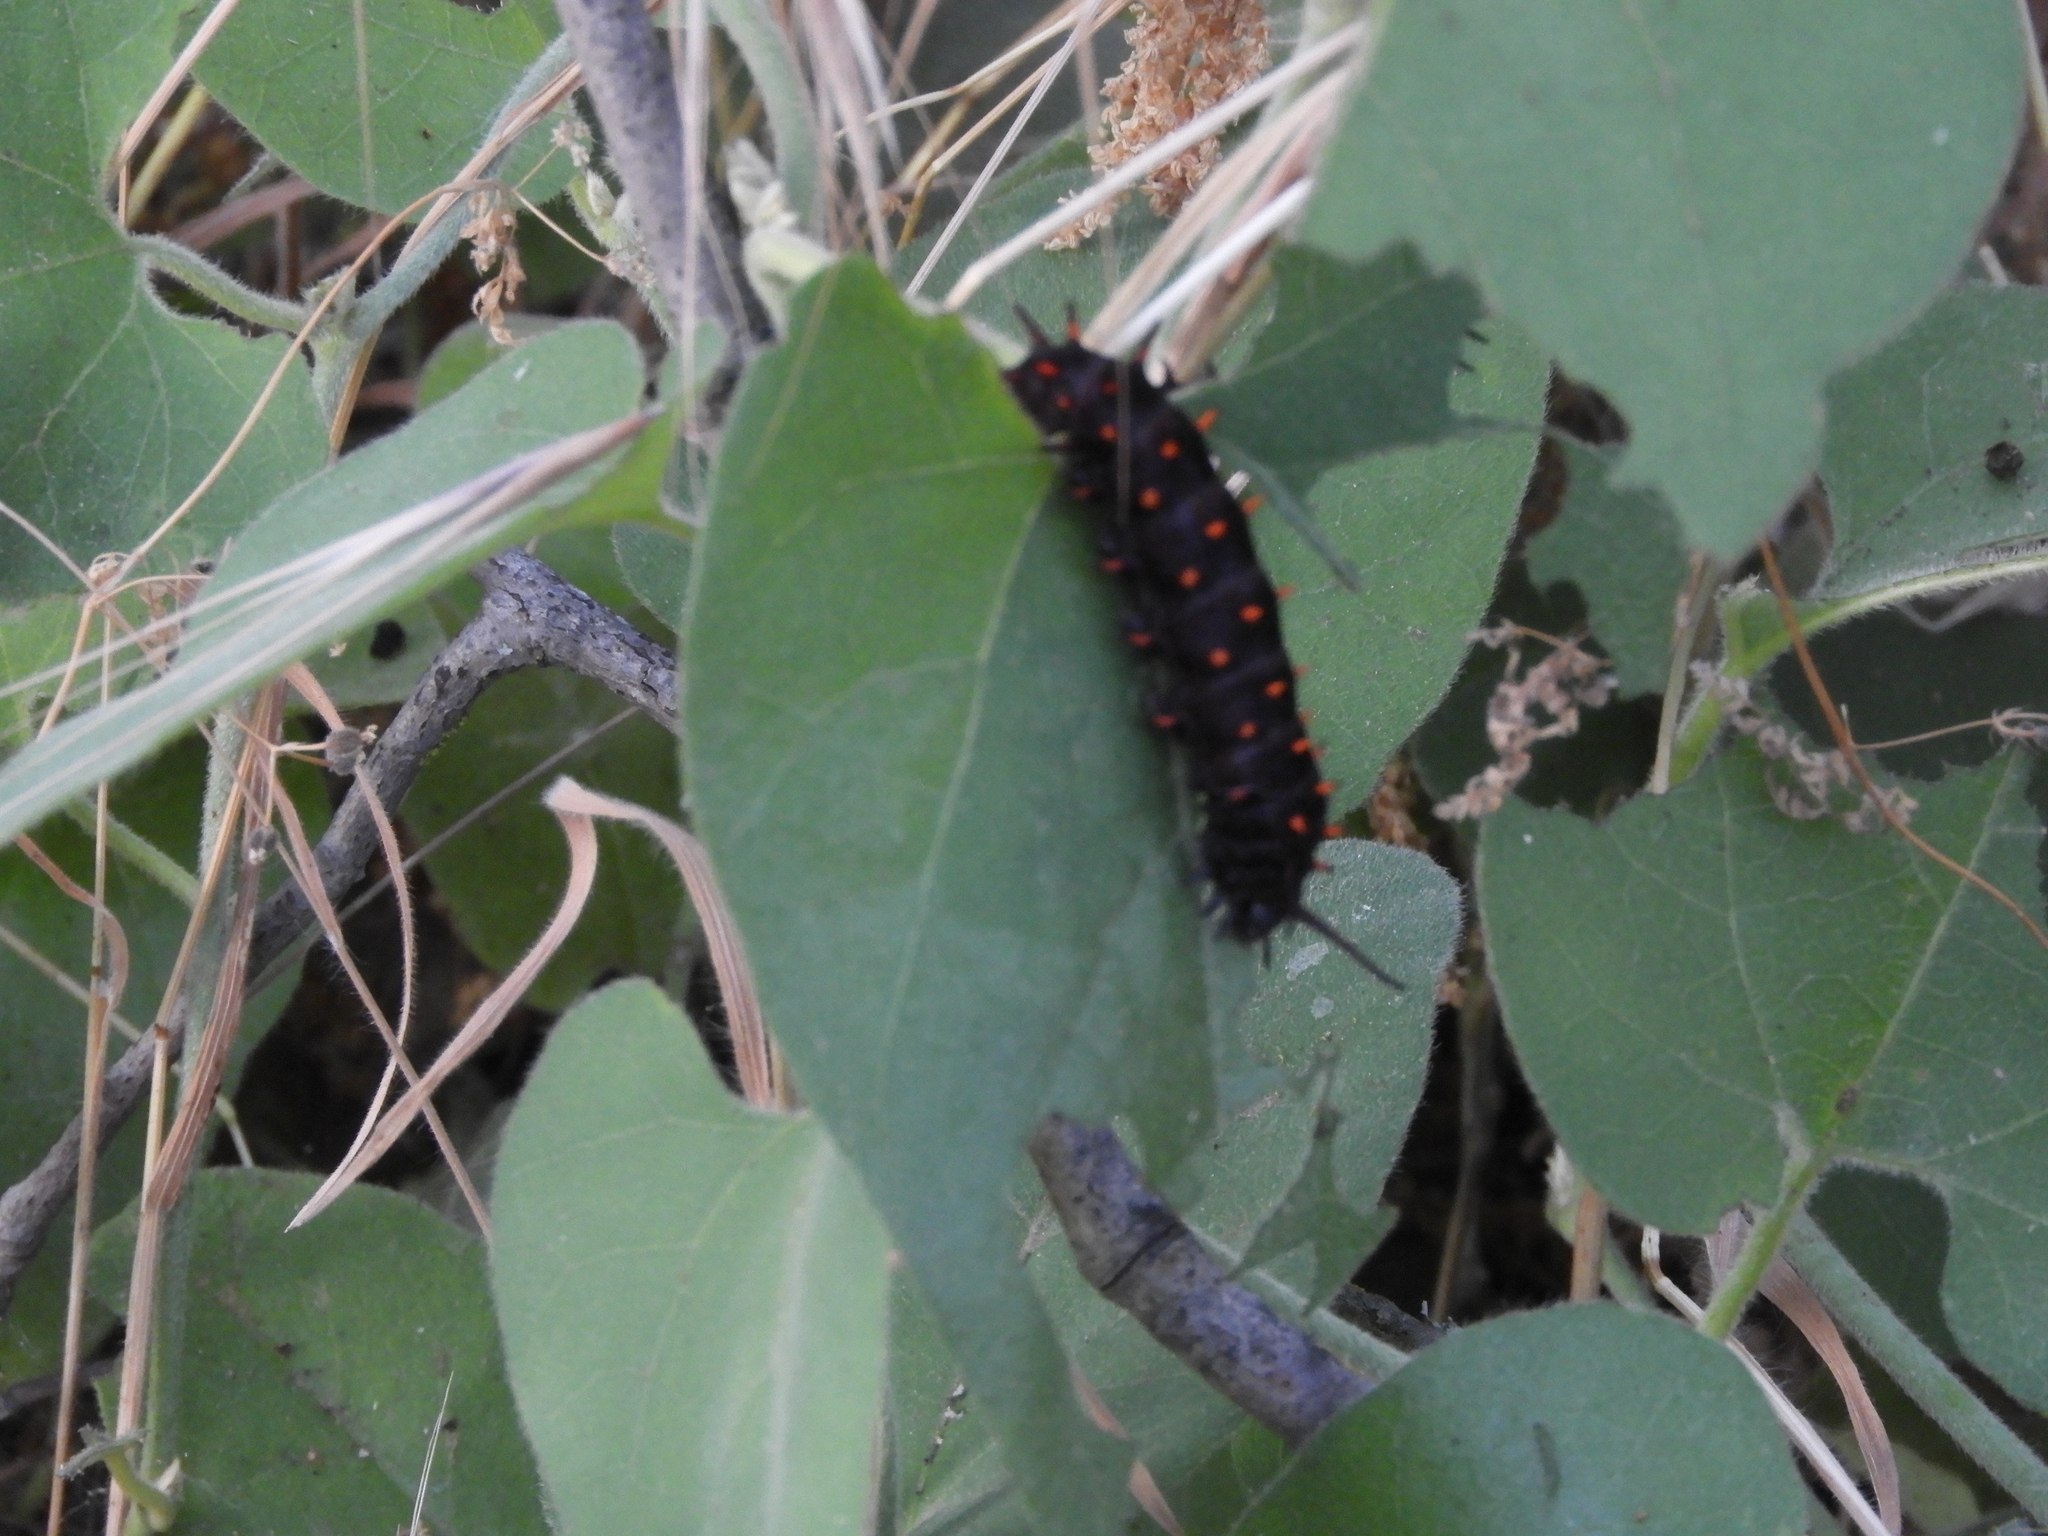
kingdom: Animalia
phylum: Arthropoda
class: Insecta
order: Lepidoptera
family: Papilionidae
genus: Battus
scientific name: Battus philenor
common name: Pipevine swallowtail
